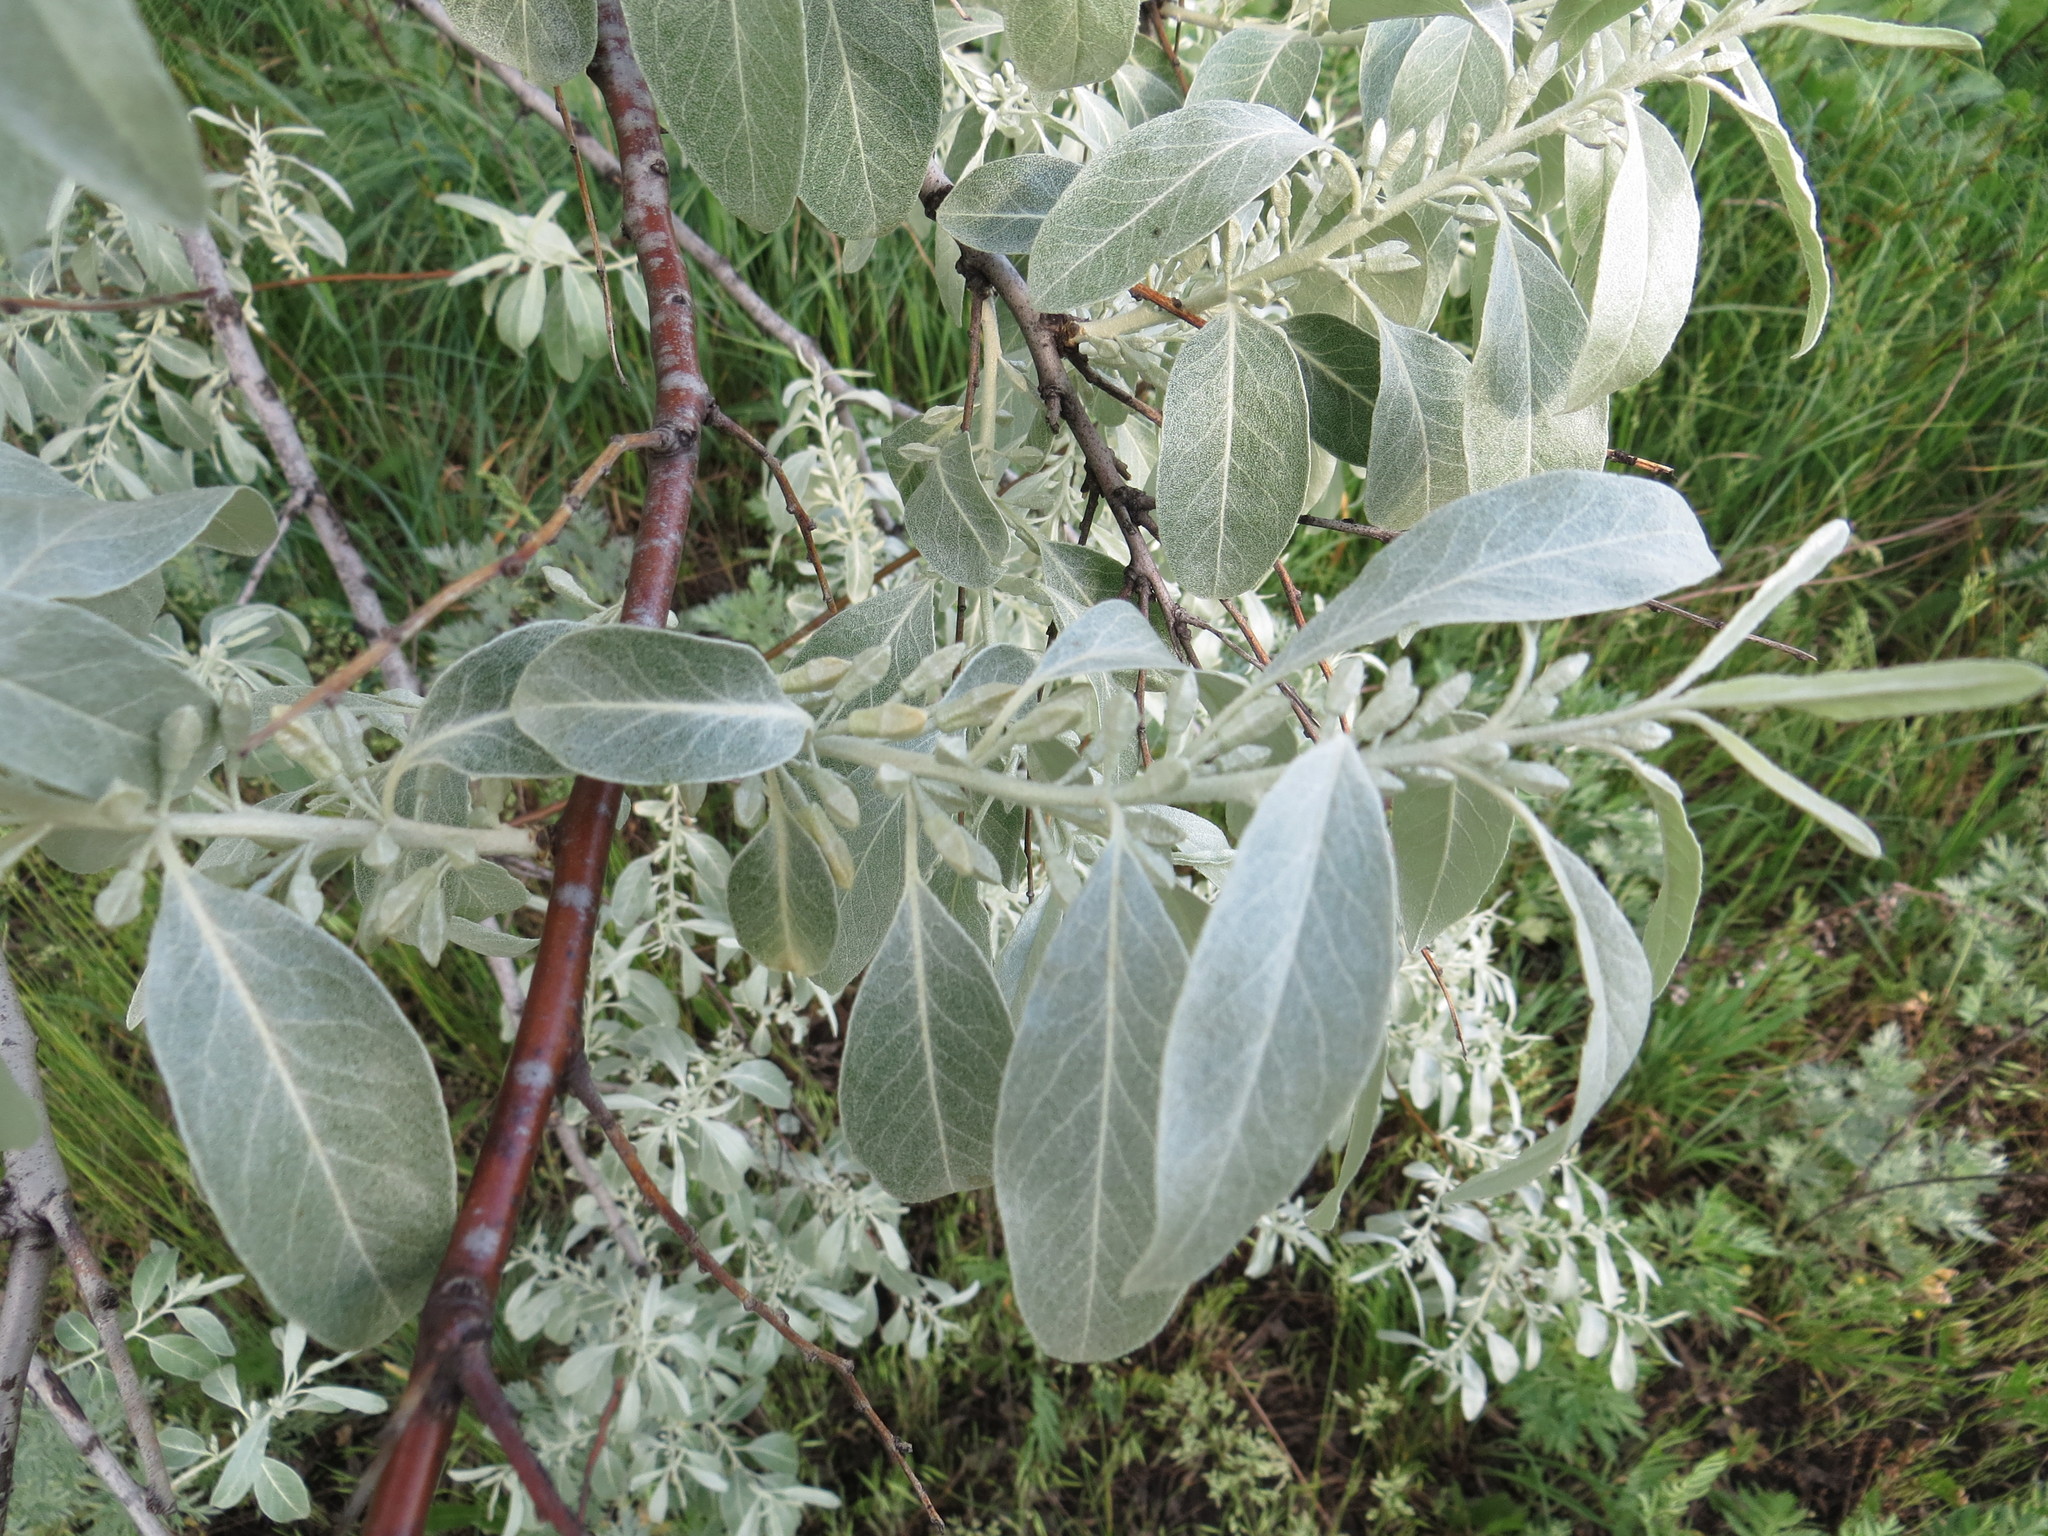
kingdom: Plantae
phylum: Tracheophyta
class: Magnoliopsida
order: Rosales
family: Elaeagnaceae
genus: Elaeagnus
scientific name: Elaeagnus angustifolia
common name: Russian olive
